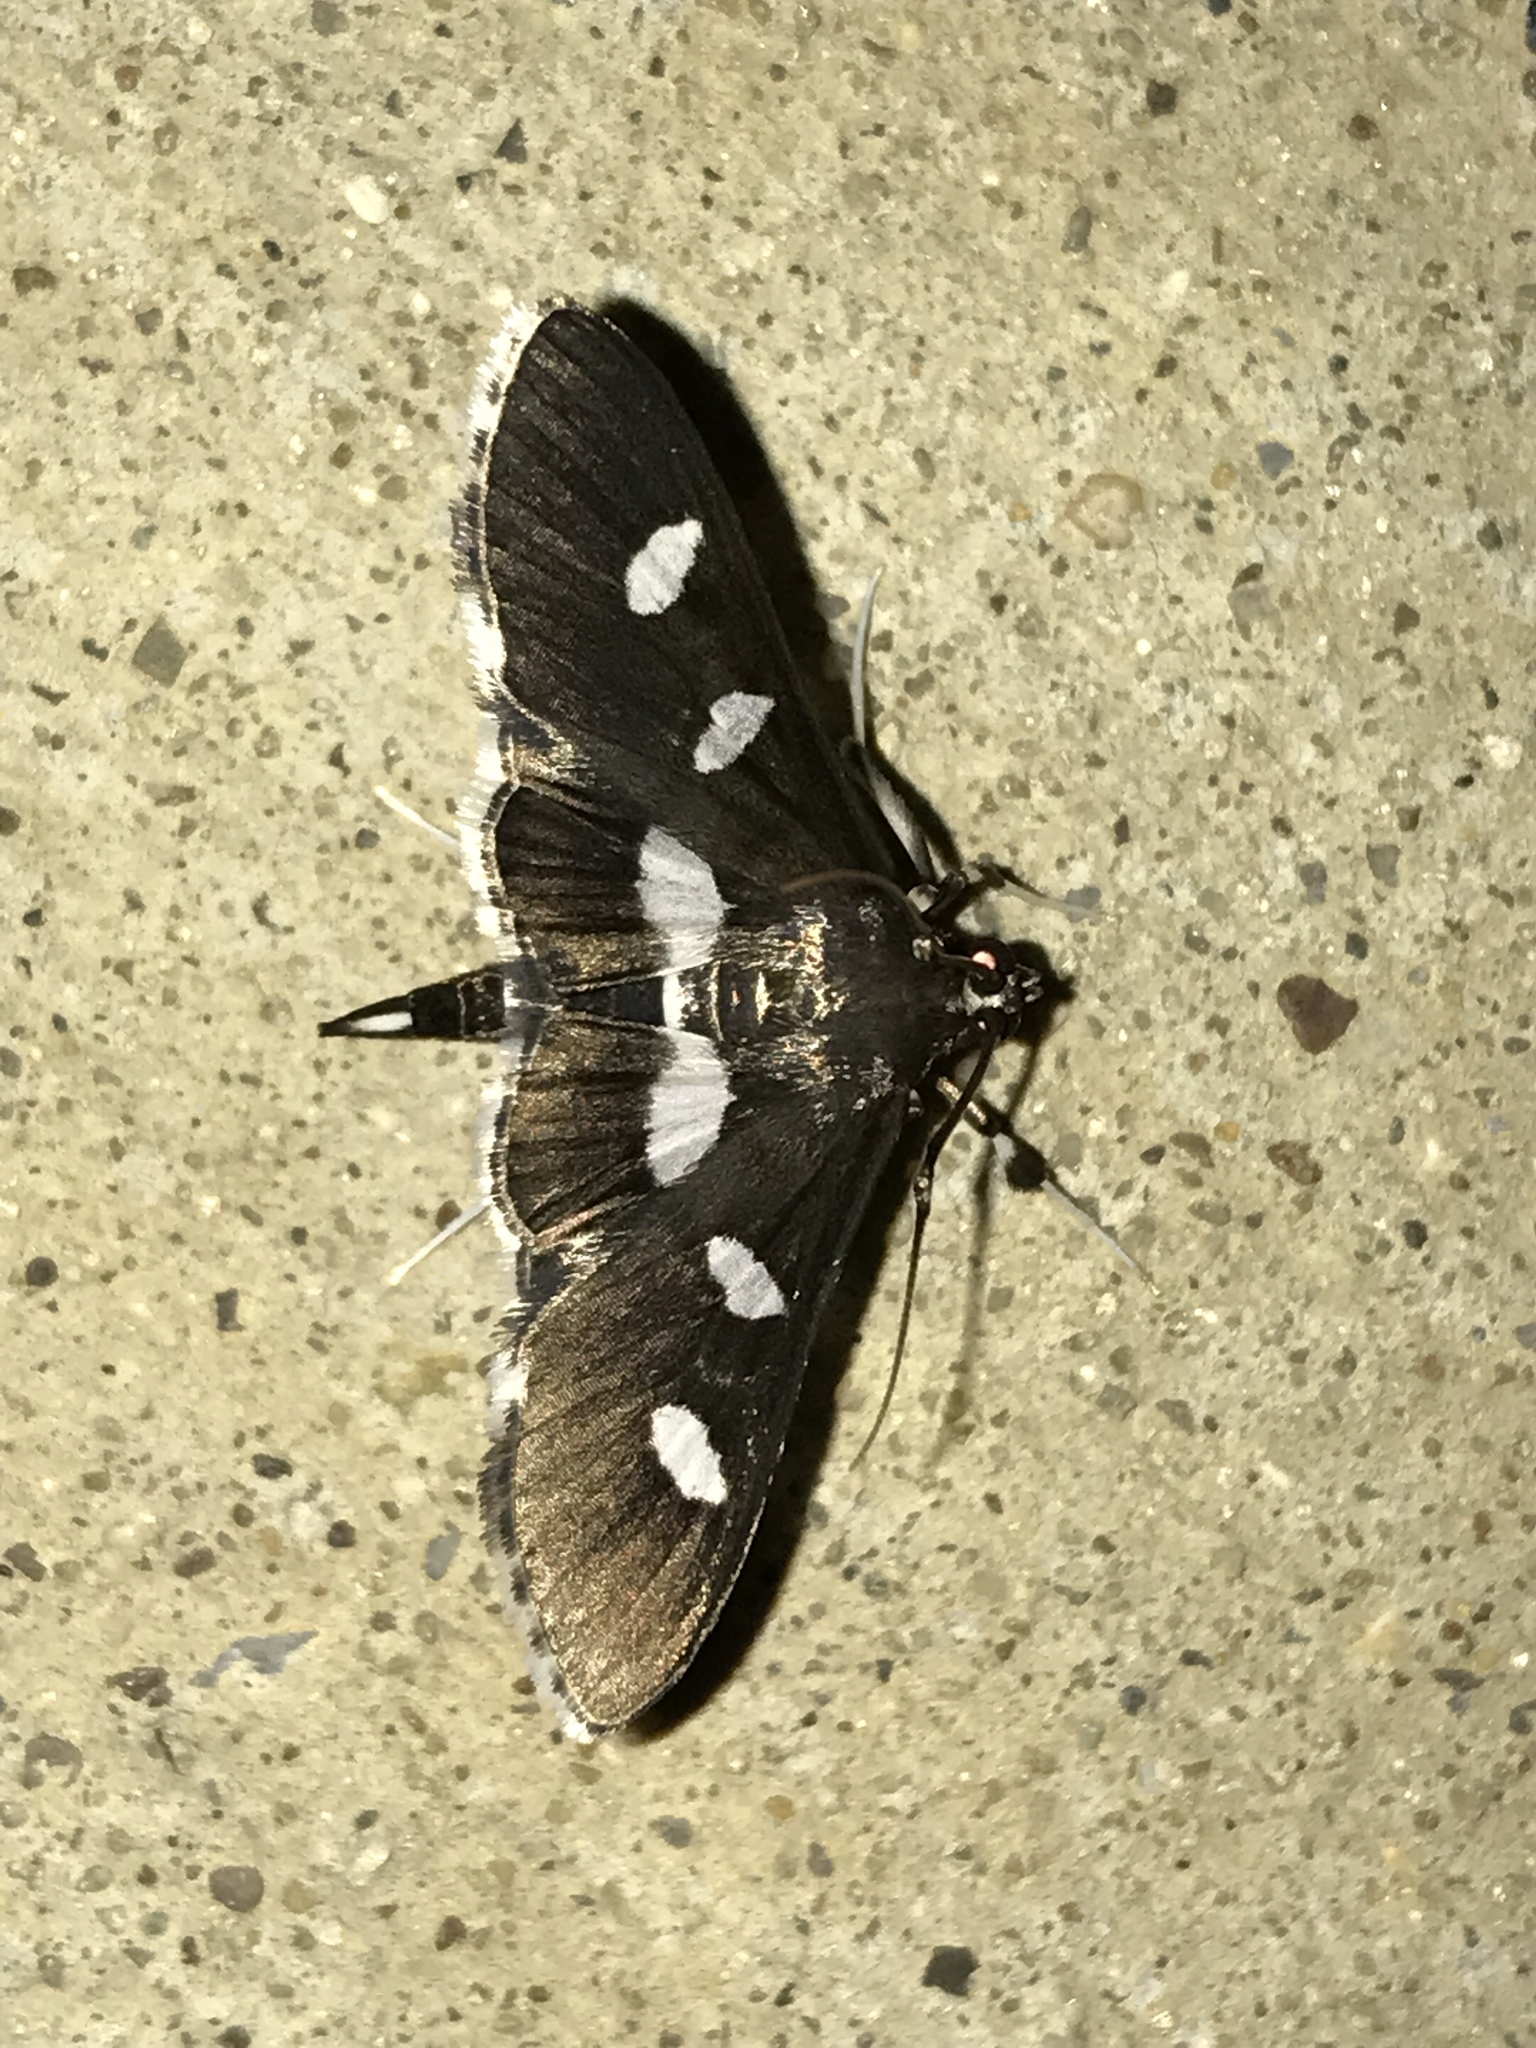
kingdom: Animalia
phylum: Arthropoda
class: Insecta
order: Lepidoptera
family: Crambidae
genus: Desmia
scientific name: Desmia
